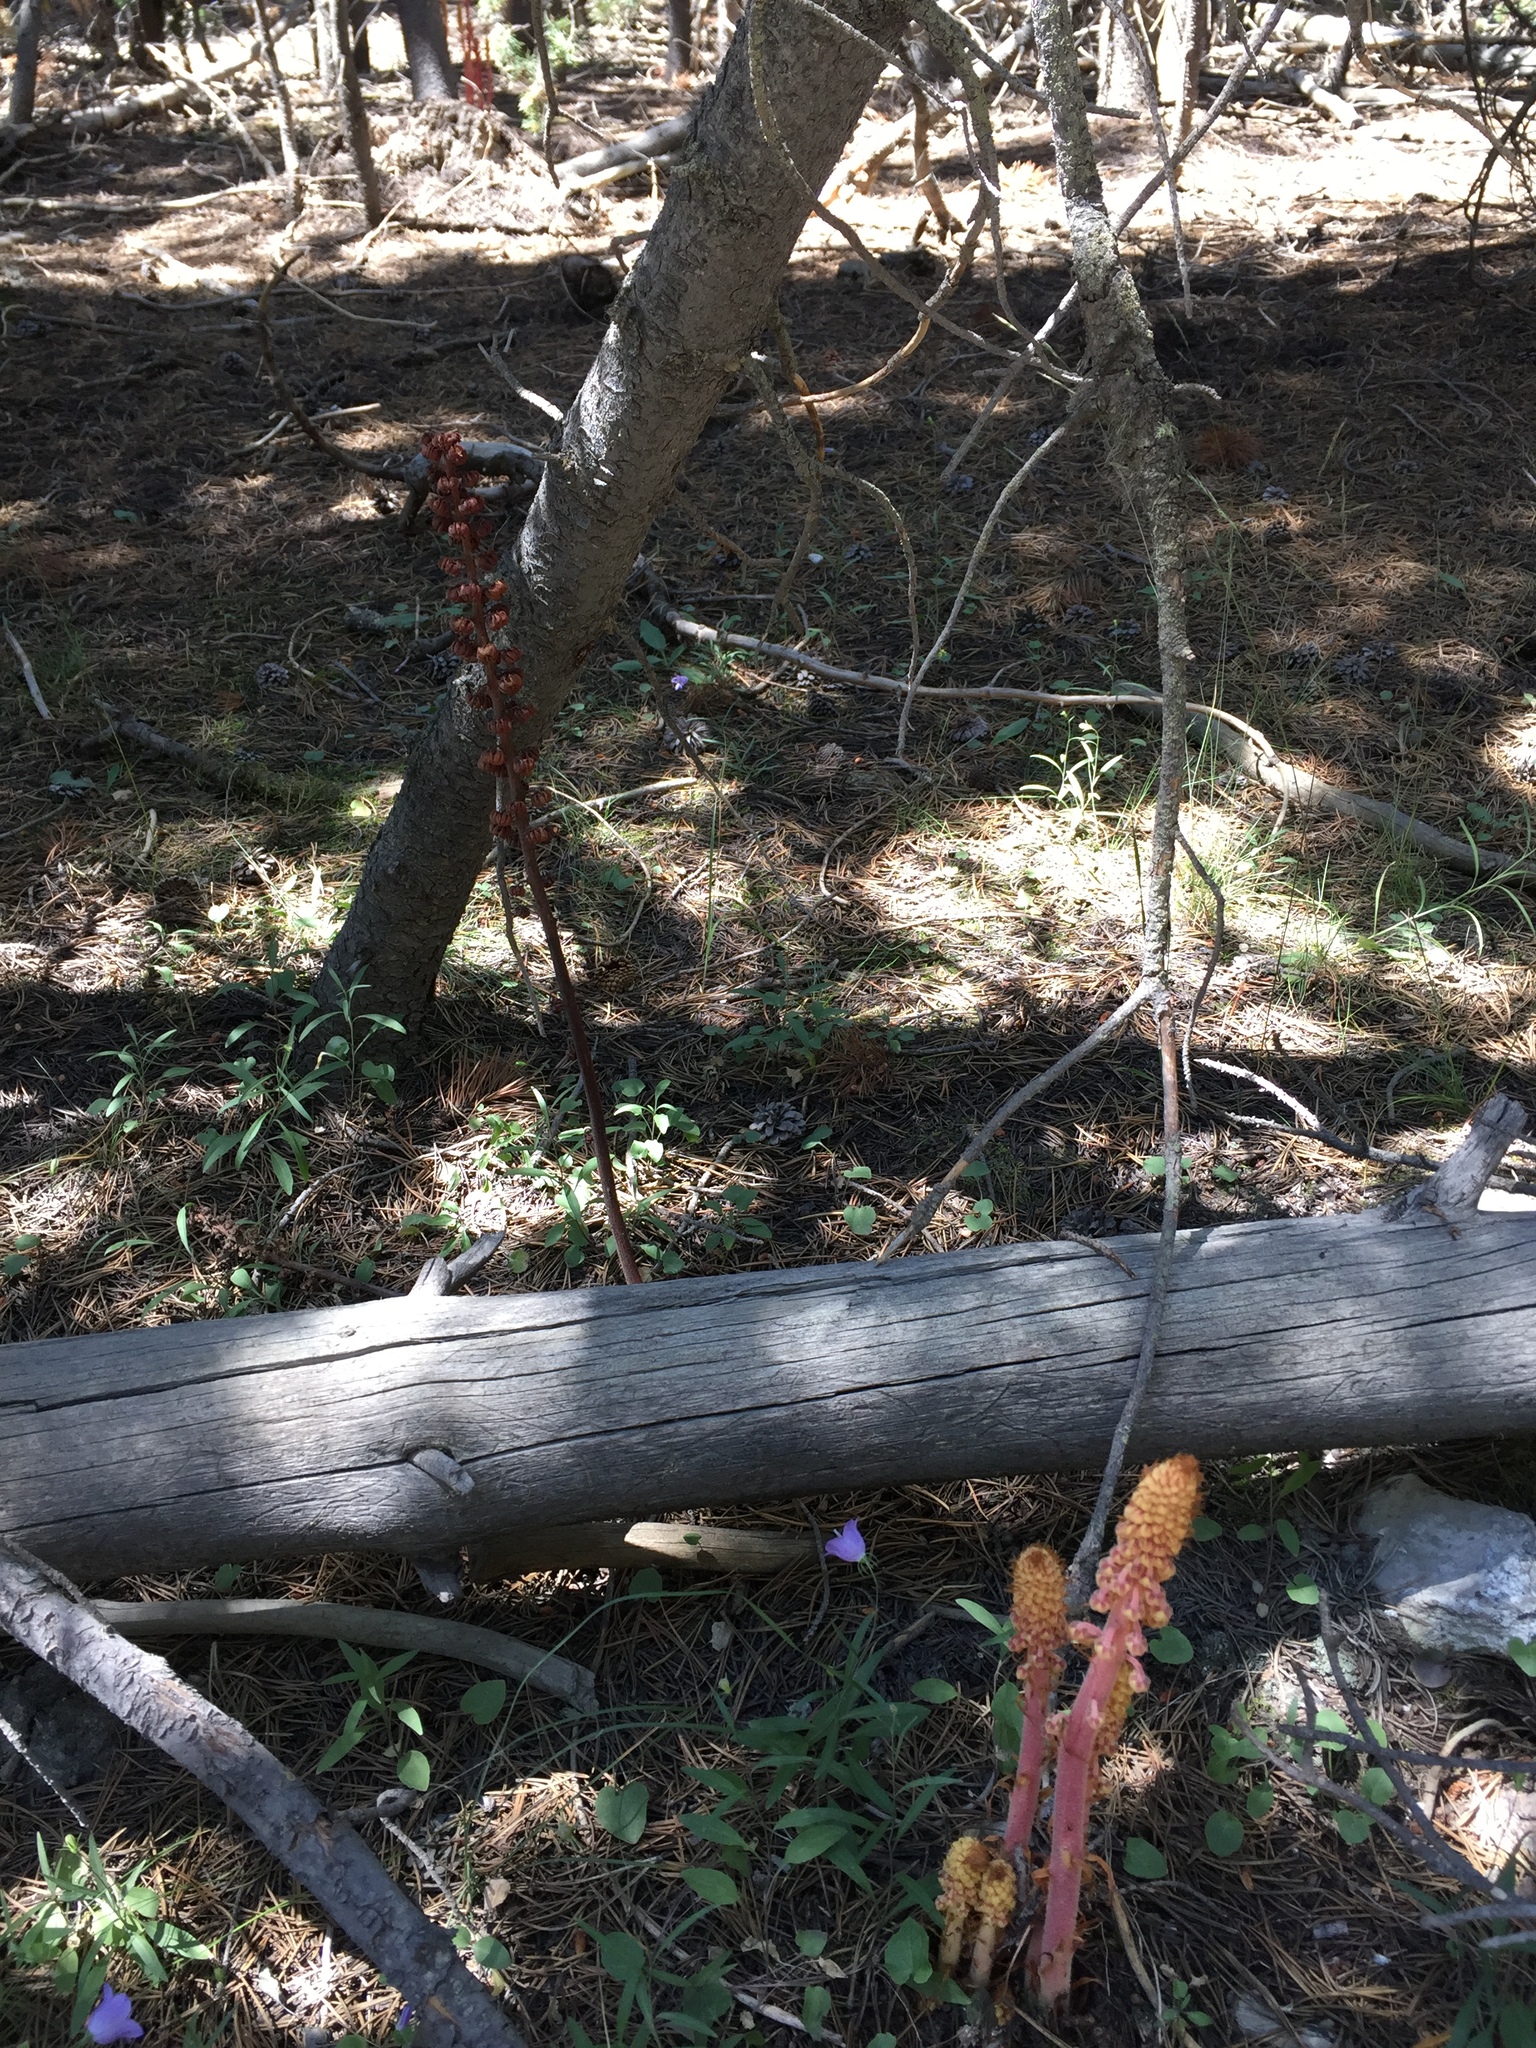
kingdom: Plantae
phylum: Tracheophyta
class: Magnoliopsida
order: Ericales
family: Ericaceae
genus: Pterospora
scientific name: Pterospora andromedea
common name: Giant bird's-nest
